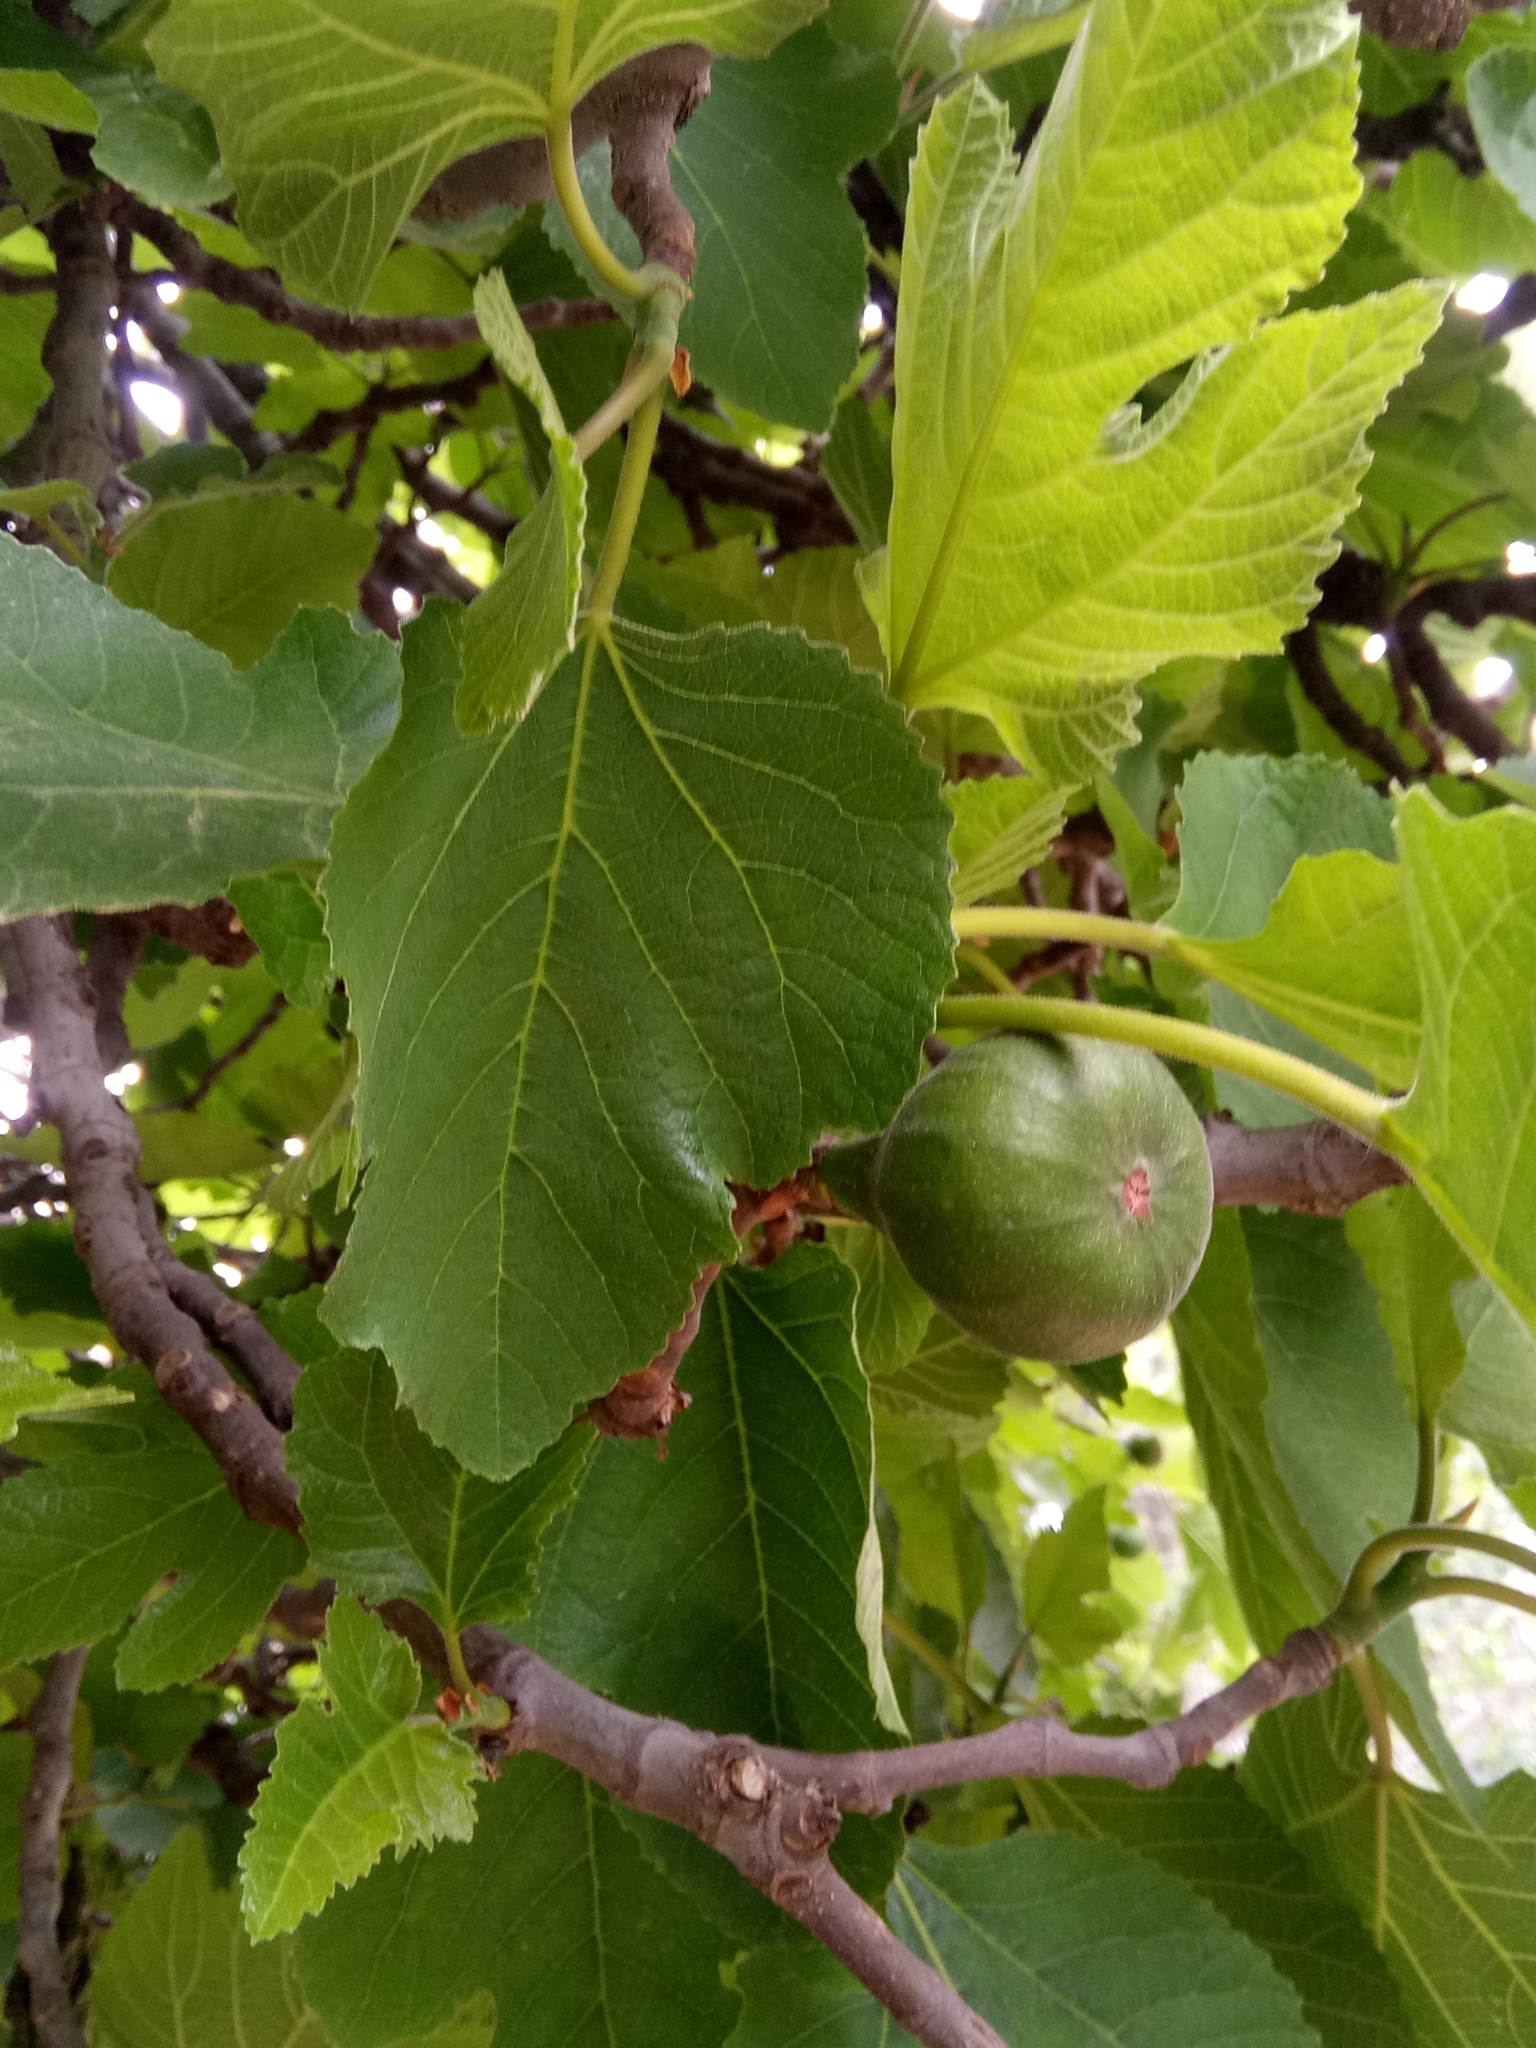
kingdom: Plantae
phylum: Tracheophyta
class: Magnoliopsida
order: Rosales
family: Moraceae
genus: Ficus
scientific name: Ficus carica
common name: Fig
